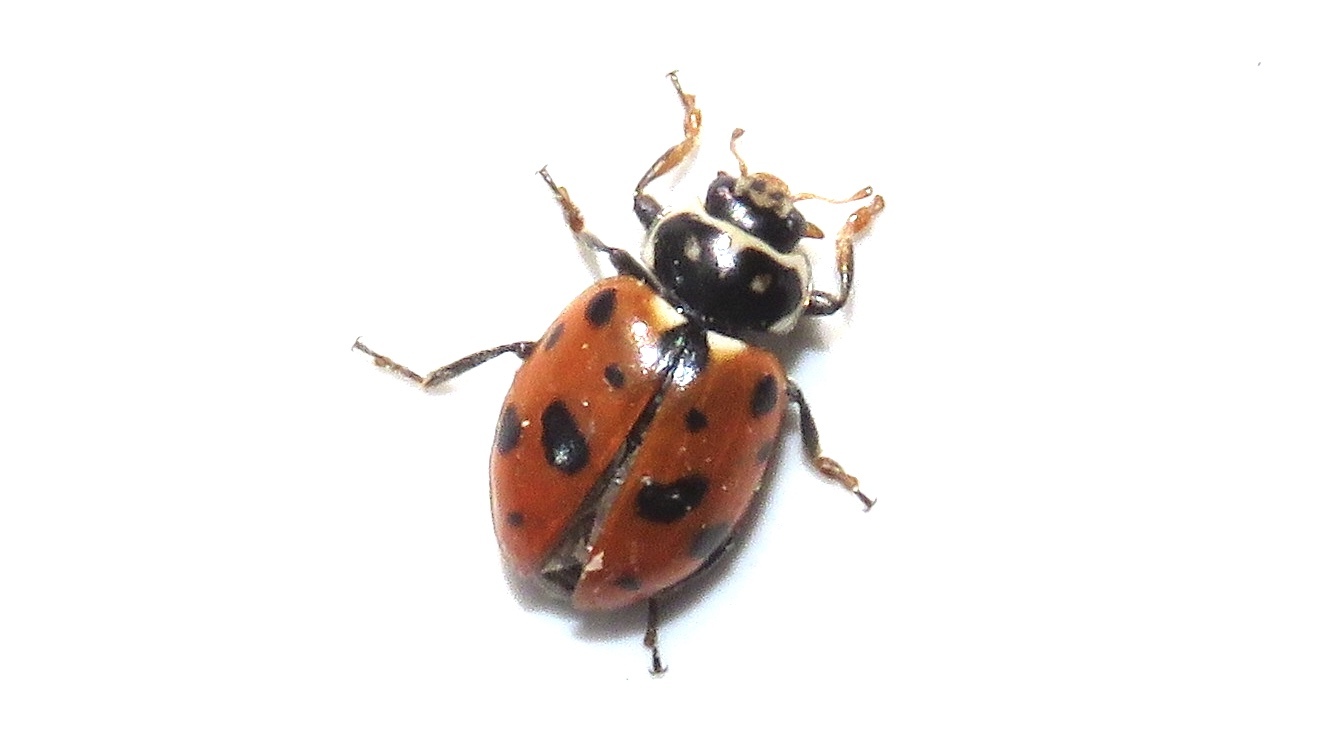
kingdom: Animalia
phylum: Arthropoda
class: Insecta
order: Coleoptera
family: Coccinellidae
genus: Hippodamia
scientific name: Hippodamia variegata
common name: Ladybird beetle
